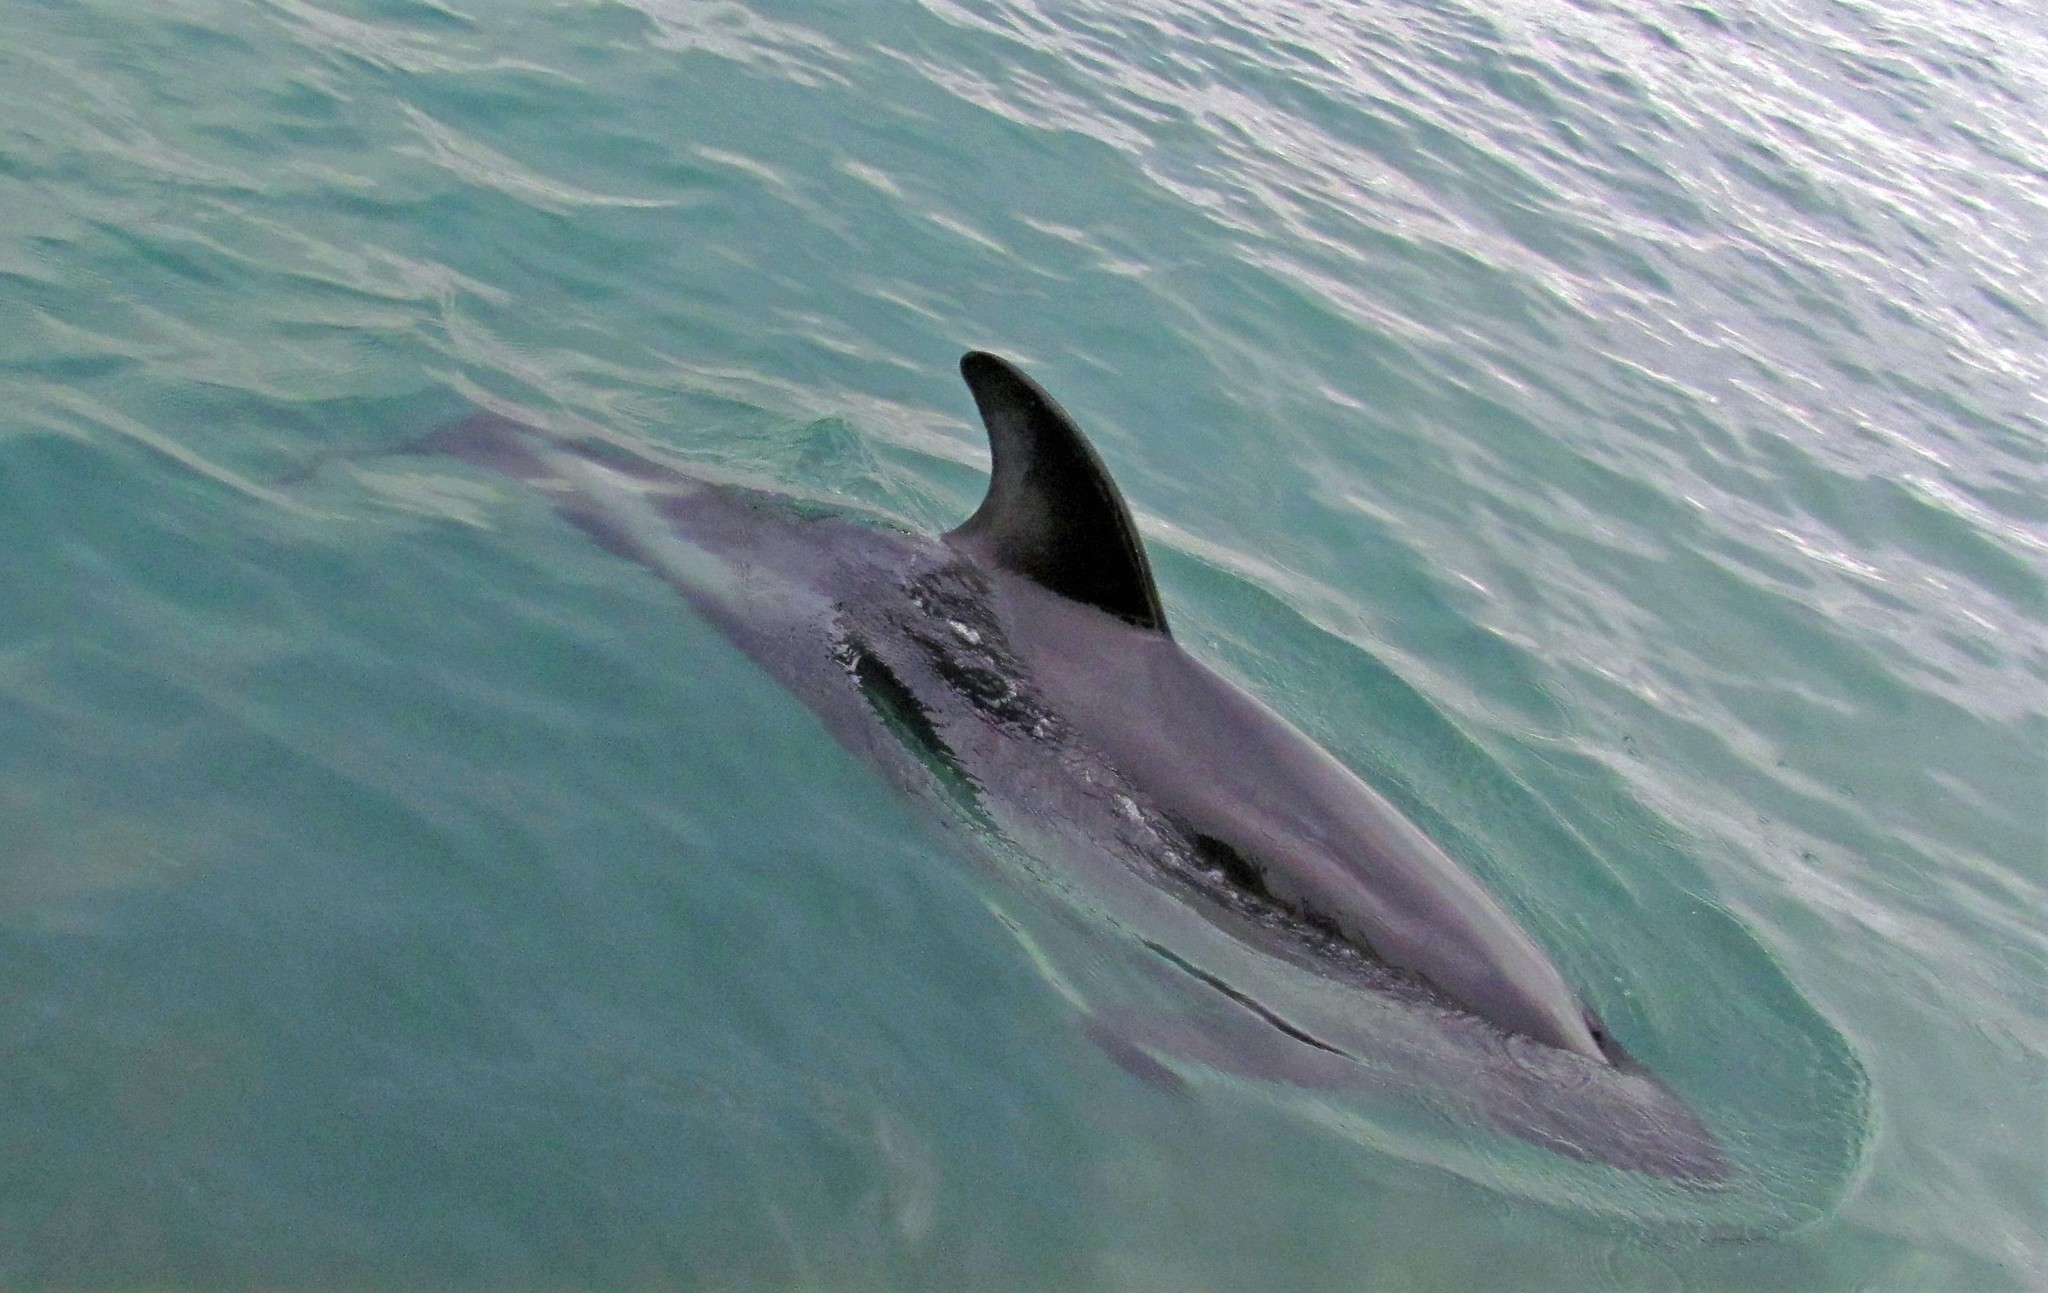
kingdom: Animalia
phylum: Chordata
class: Mammalia
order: Cetacea
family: Delphinidae
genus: Lagenorhynchus
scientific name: Lagenorhynchus australis
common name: Peale's dolphin
